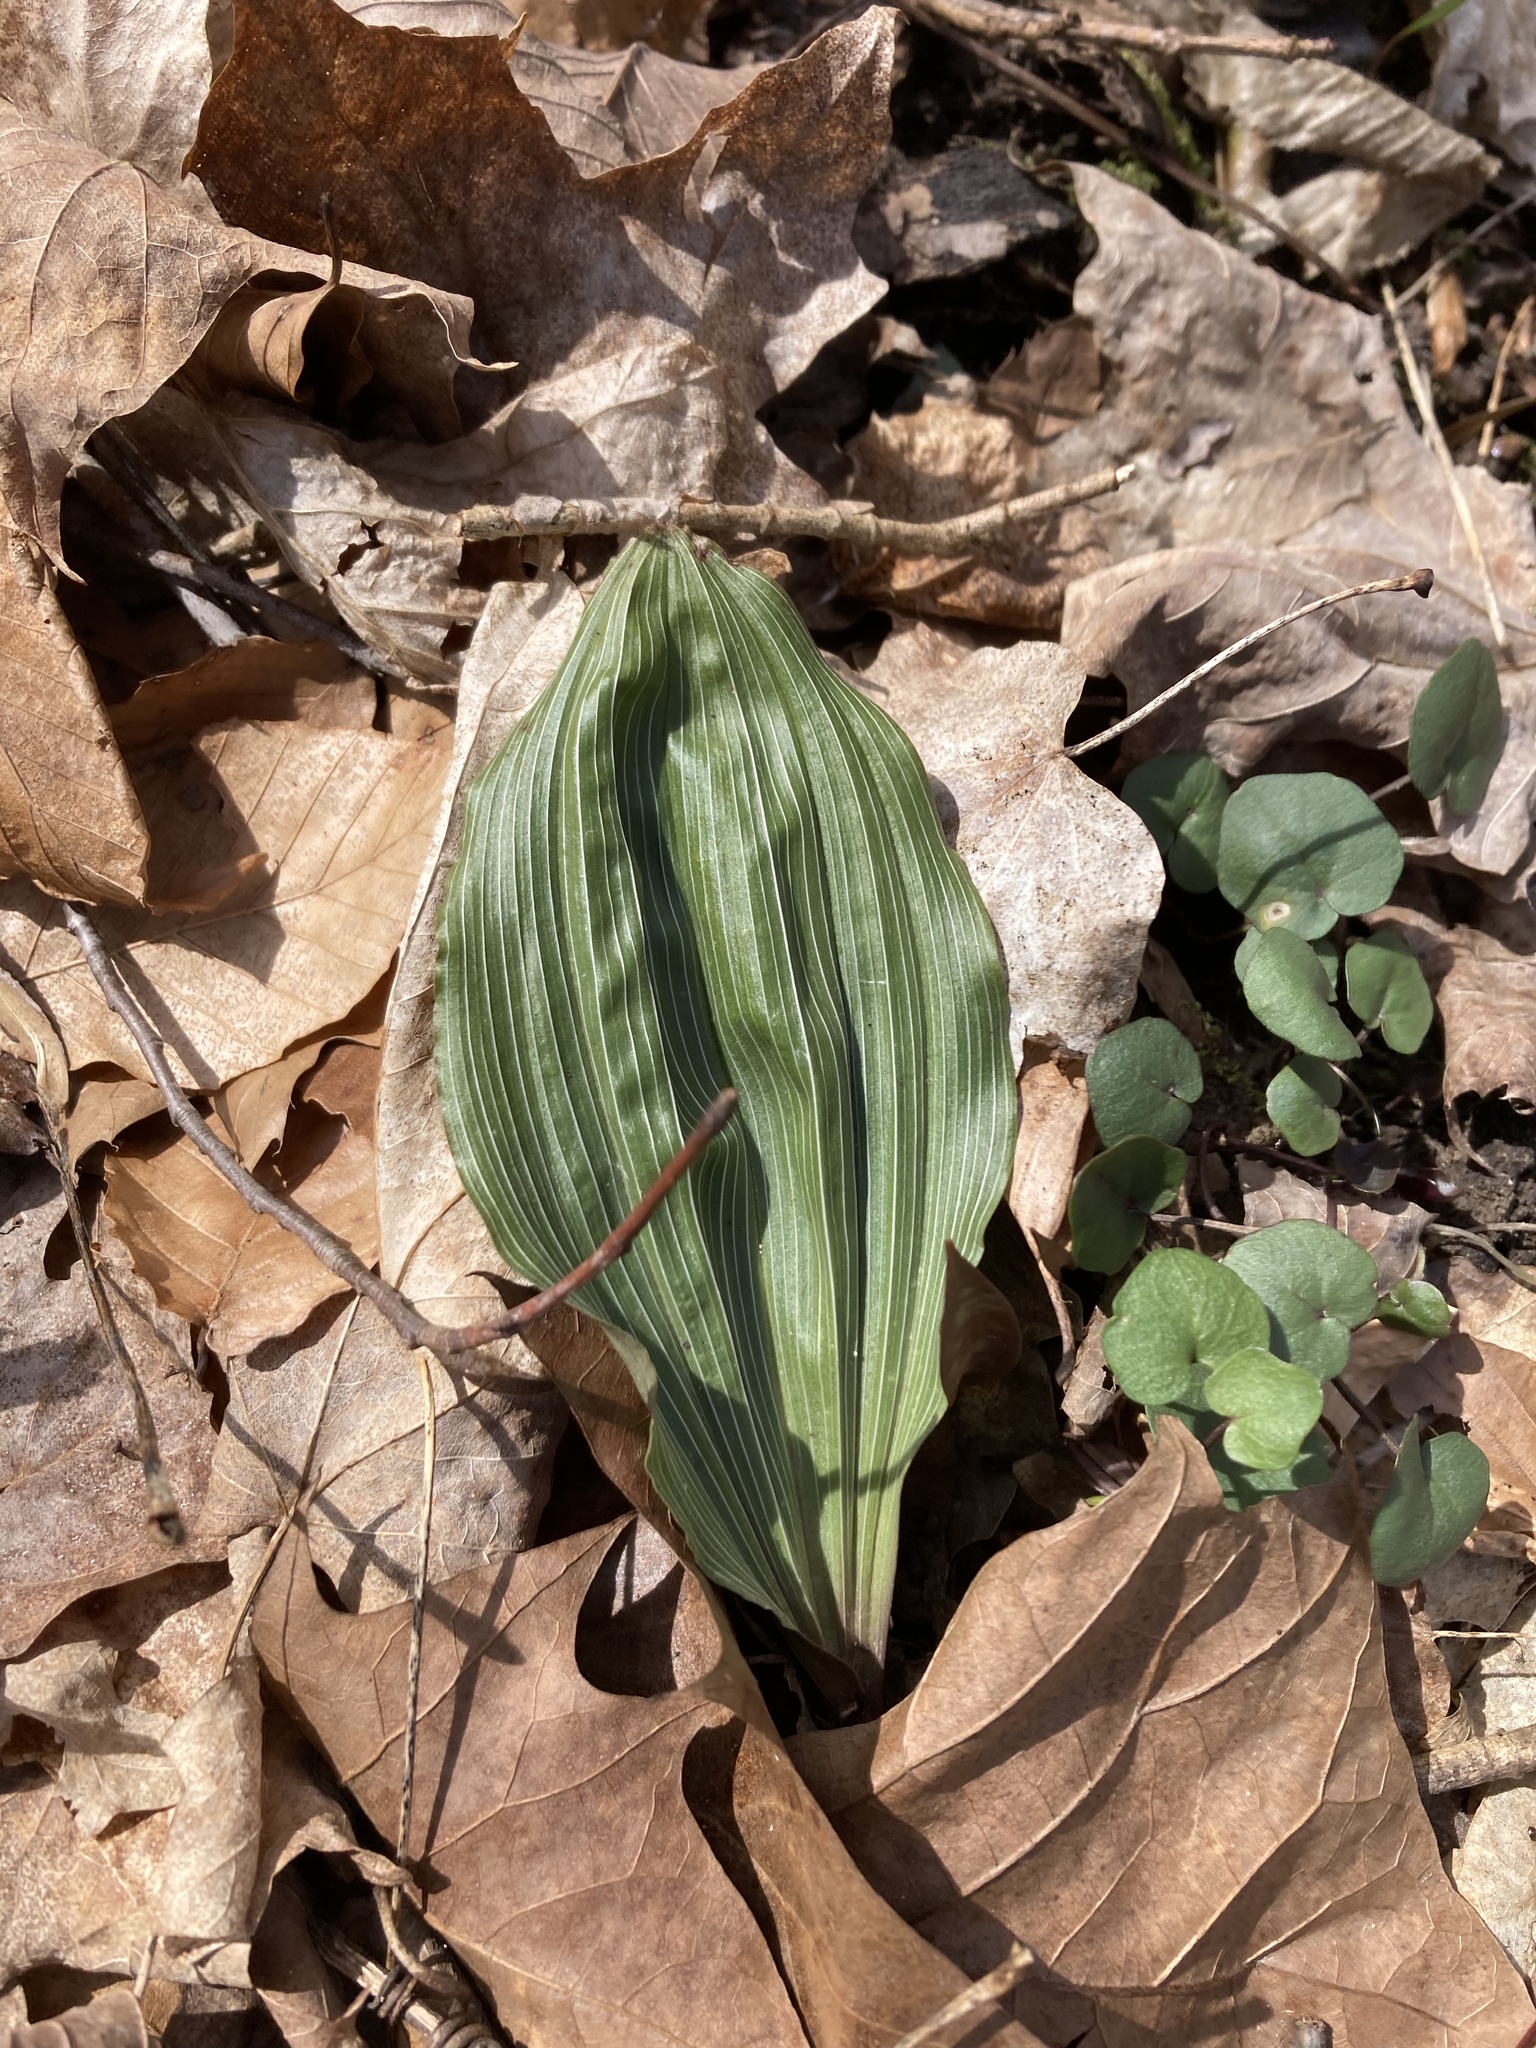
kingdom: Plantae
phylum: Tracheophyta
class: Liliopsida
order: Asparagales
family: Orchidaceae
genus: Aplectrum
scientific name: Aplectrum hyemale
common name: Adam-and-eve
